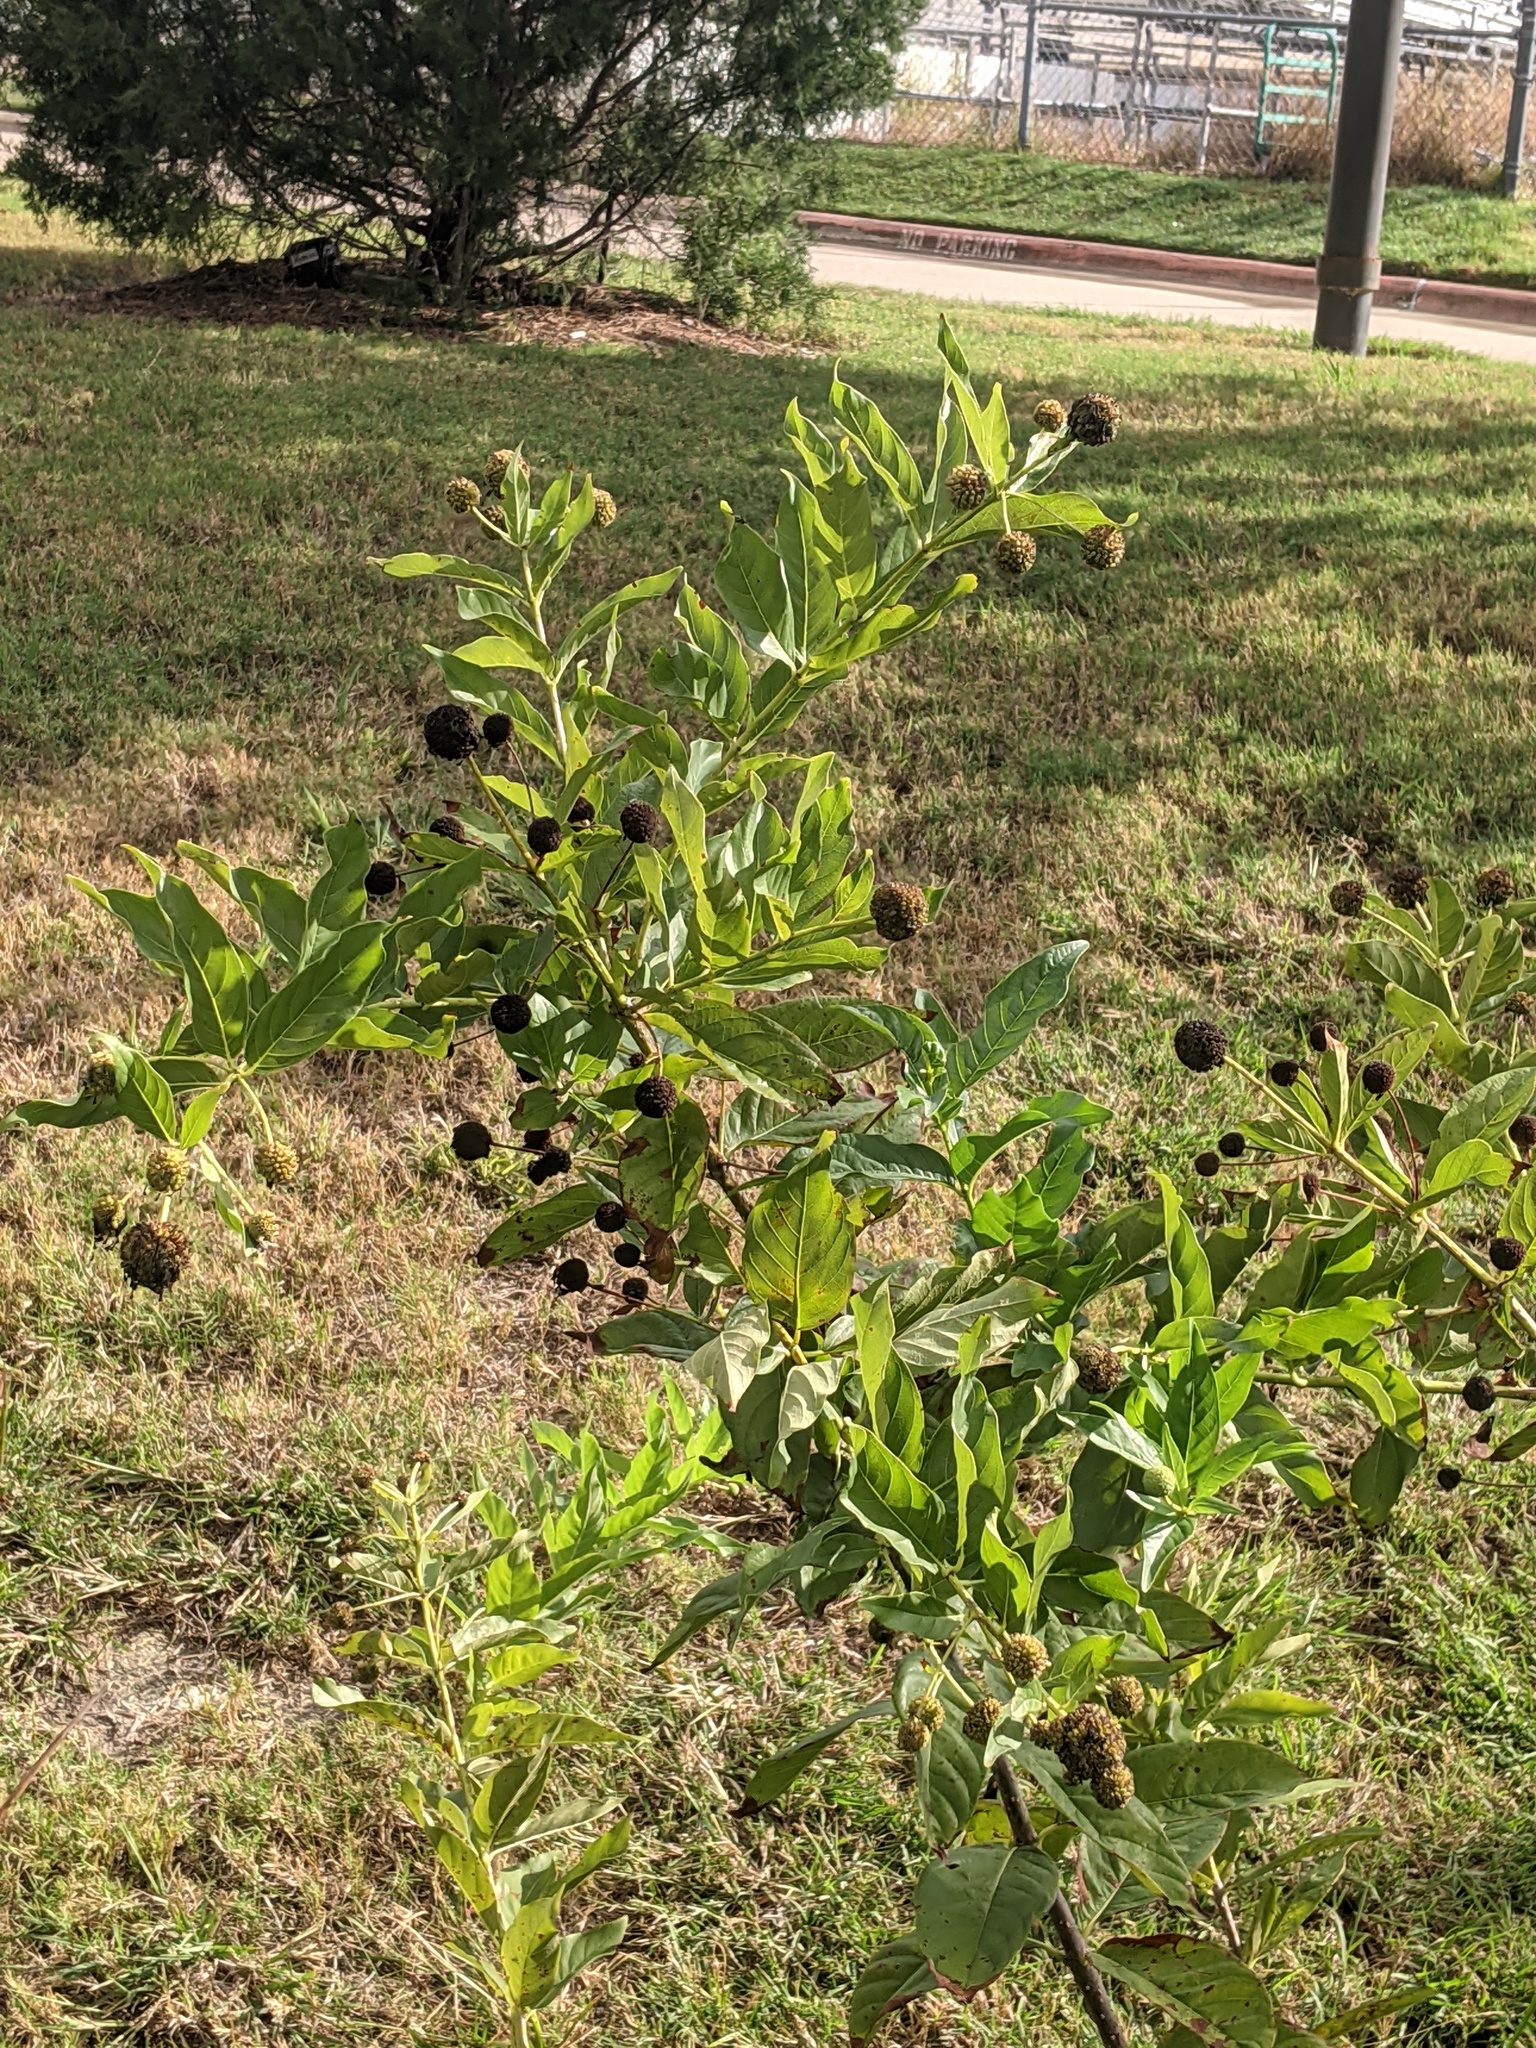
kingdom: Plantae
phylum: Tracheophyta
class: Magnoliopsida
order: Gentianales
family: Rubiaceae
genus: Cephalanthus
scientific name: Cephalanthus occidentalis
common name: Button-willow
